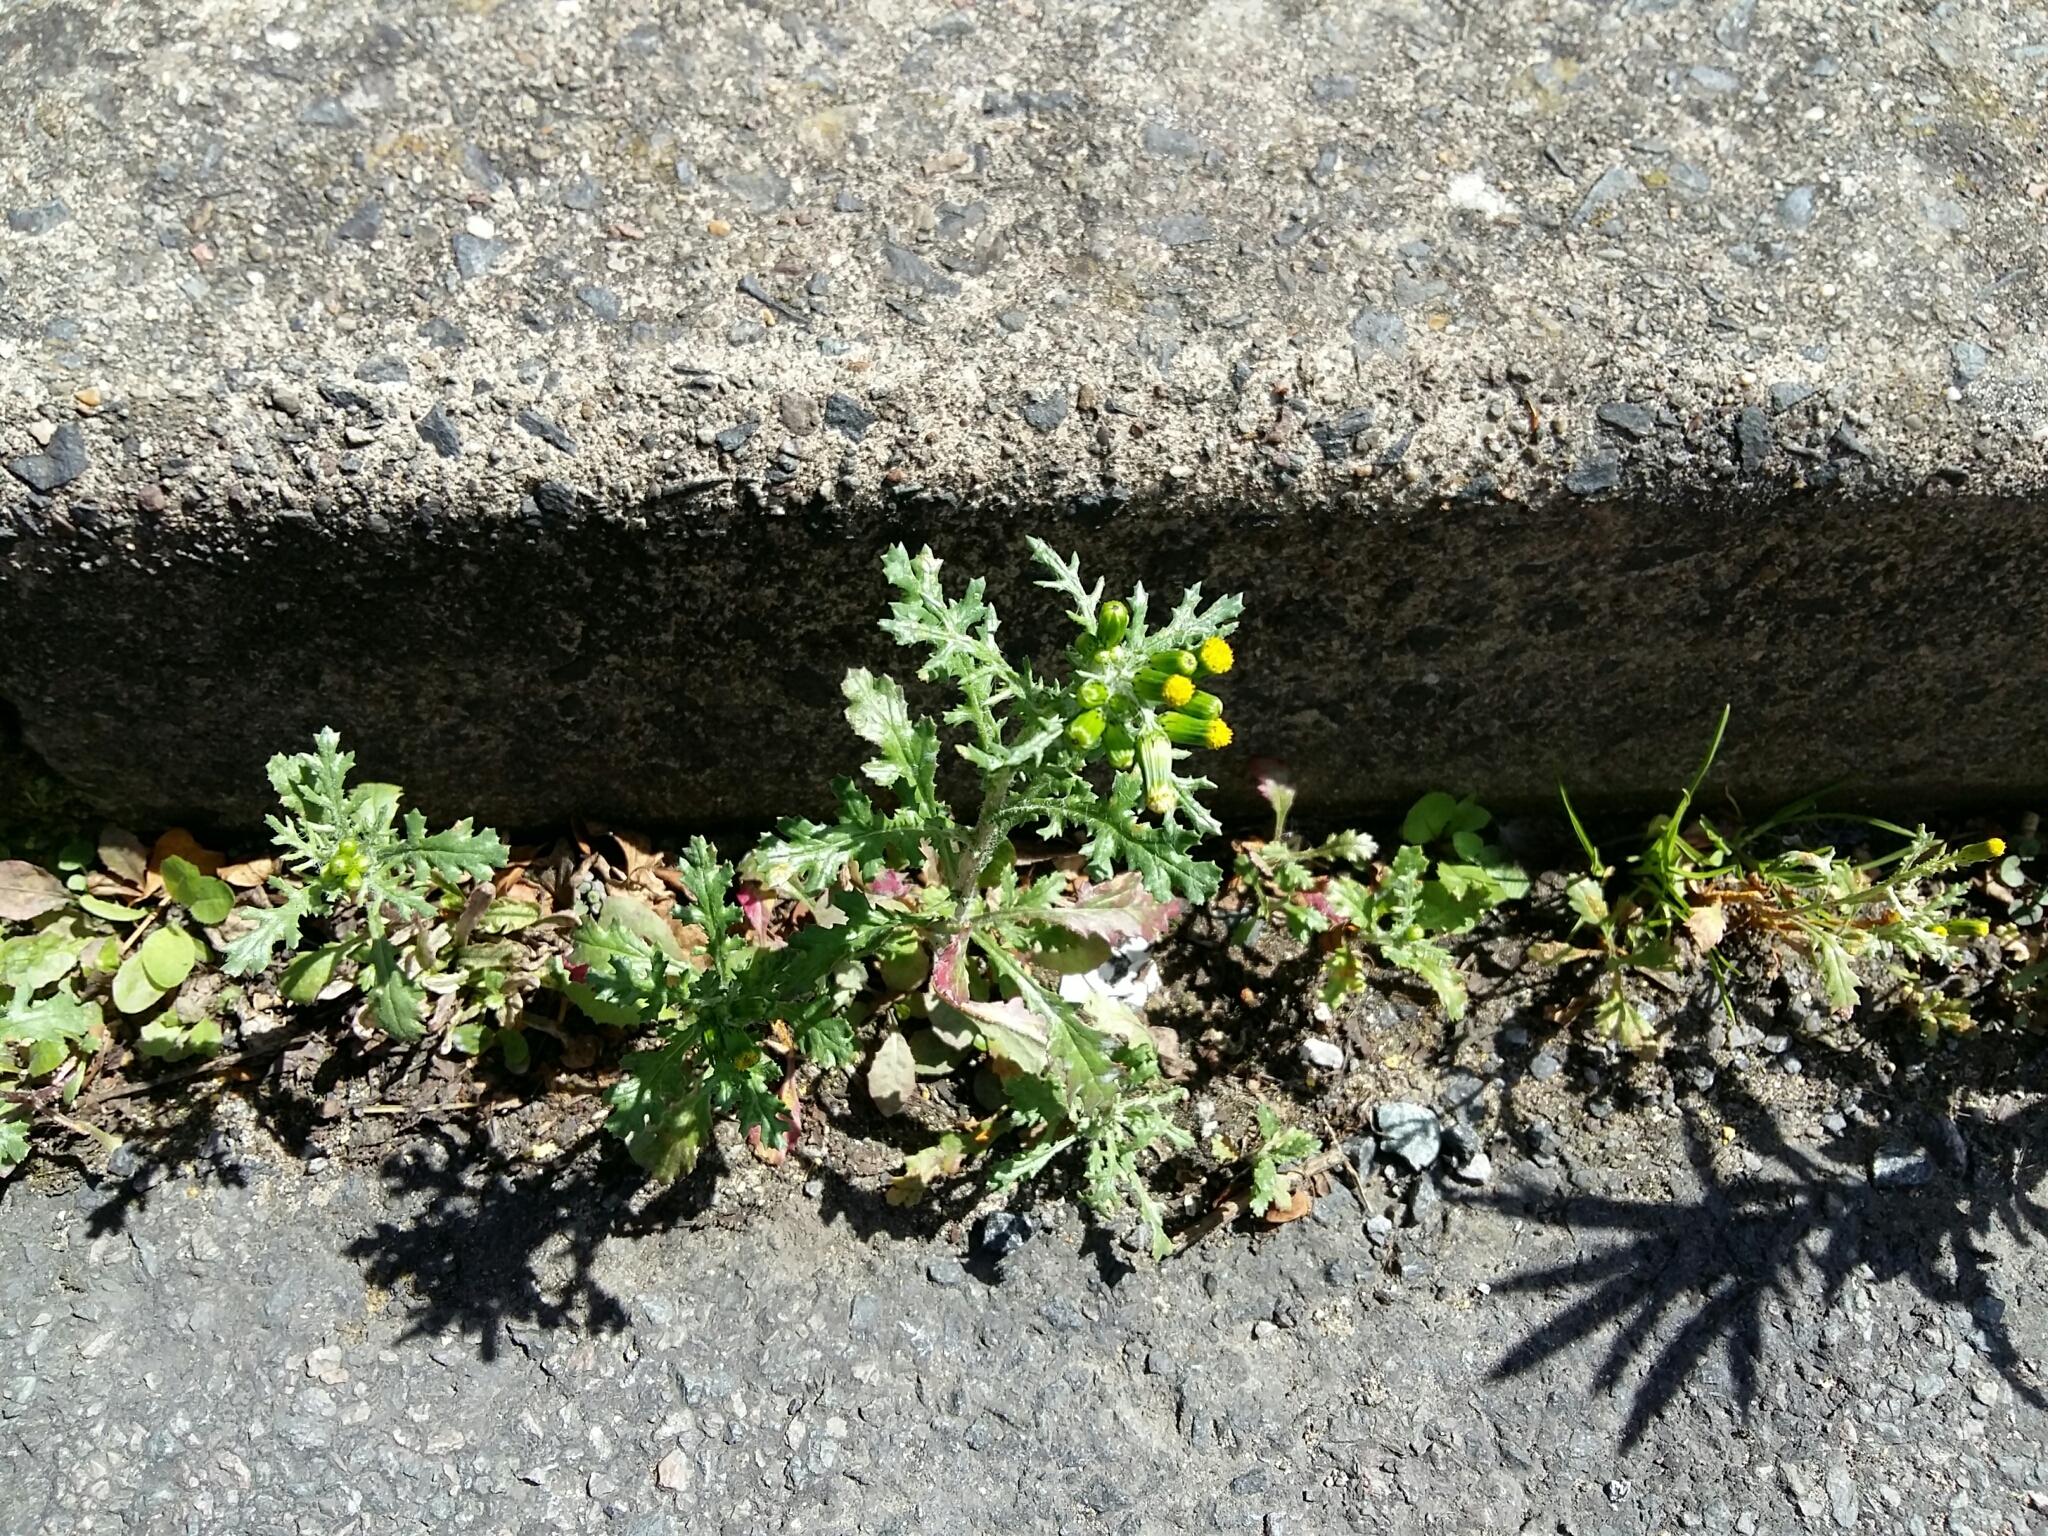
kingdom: Plantae
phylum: Tracheophyta
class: Magnoliopsida
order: Asterales
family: Asteraceae
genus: Senecio
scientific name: Senecio vulgaris
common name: Old-man-in-the-spring
